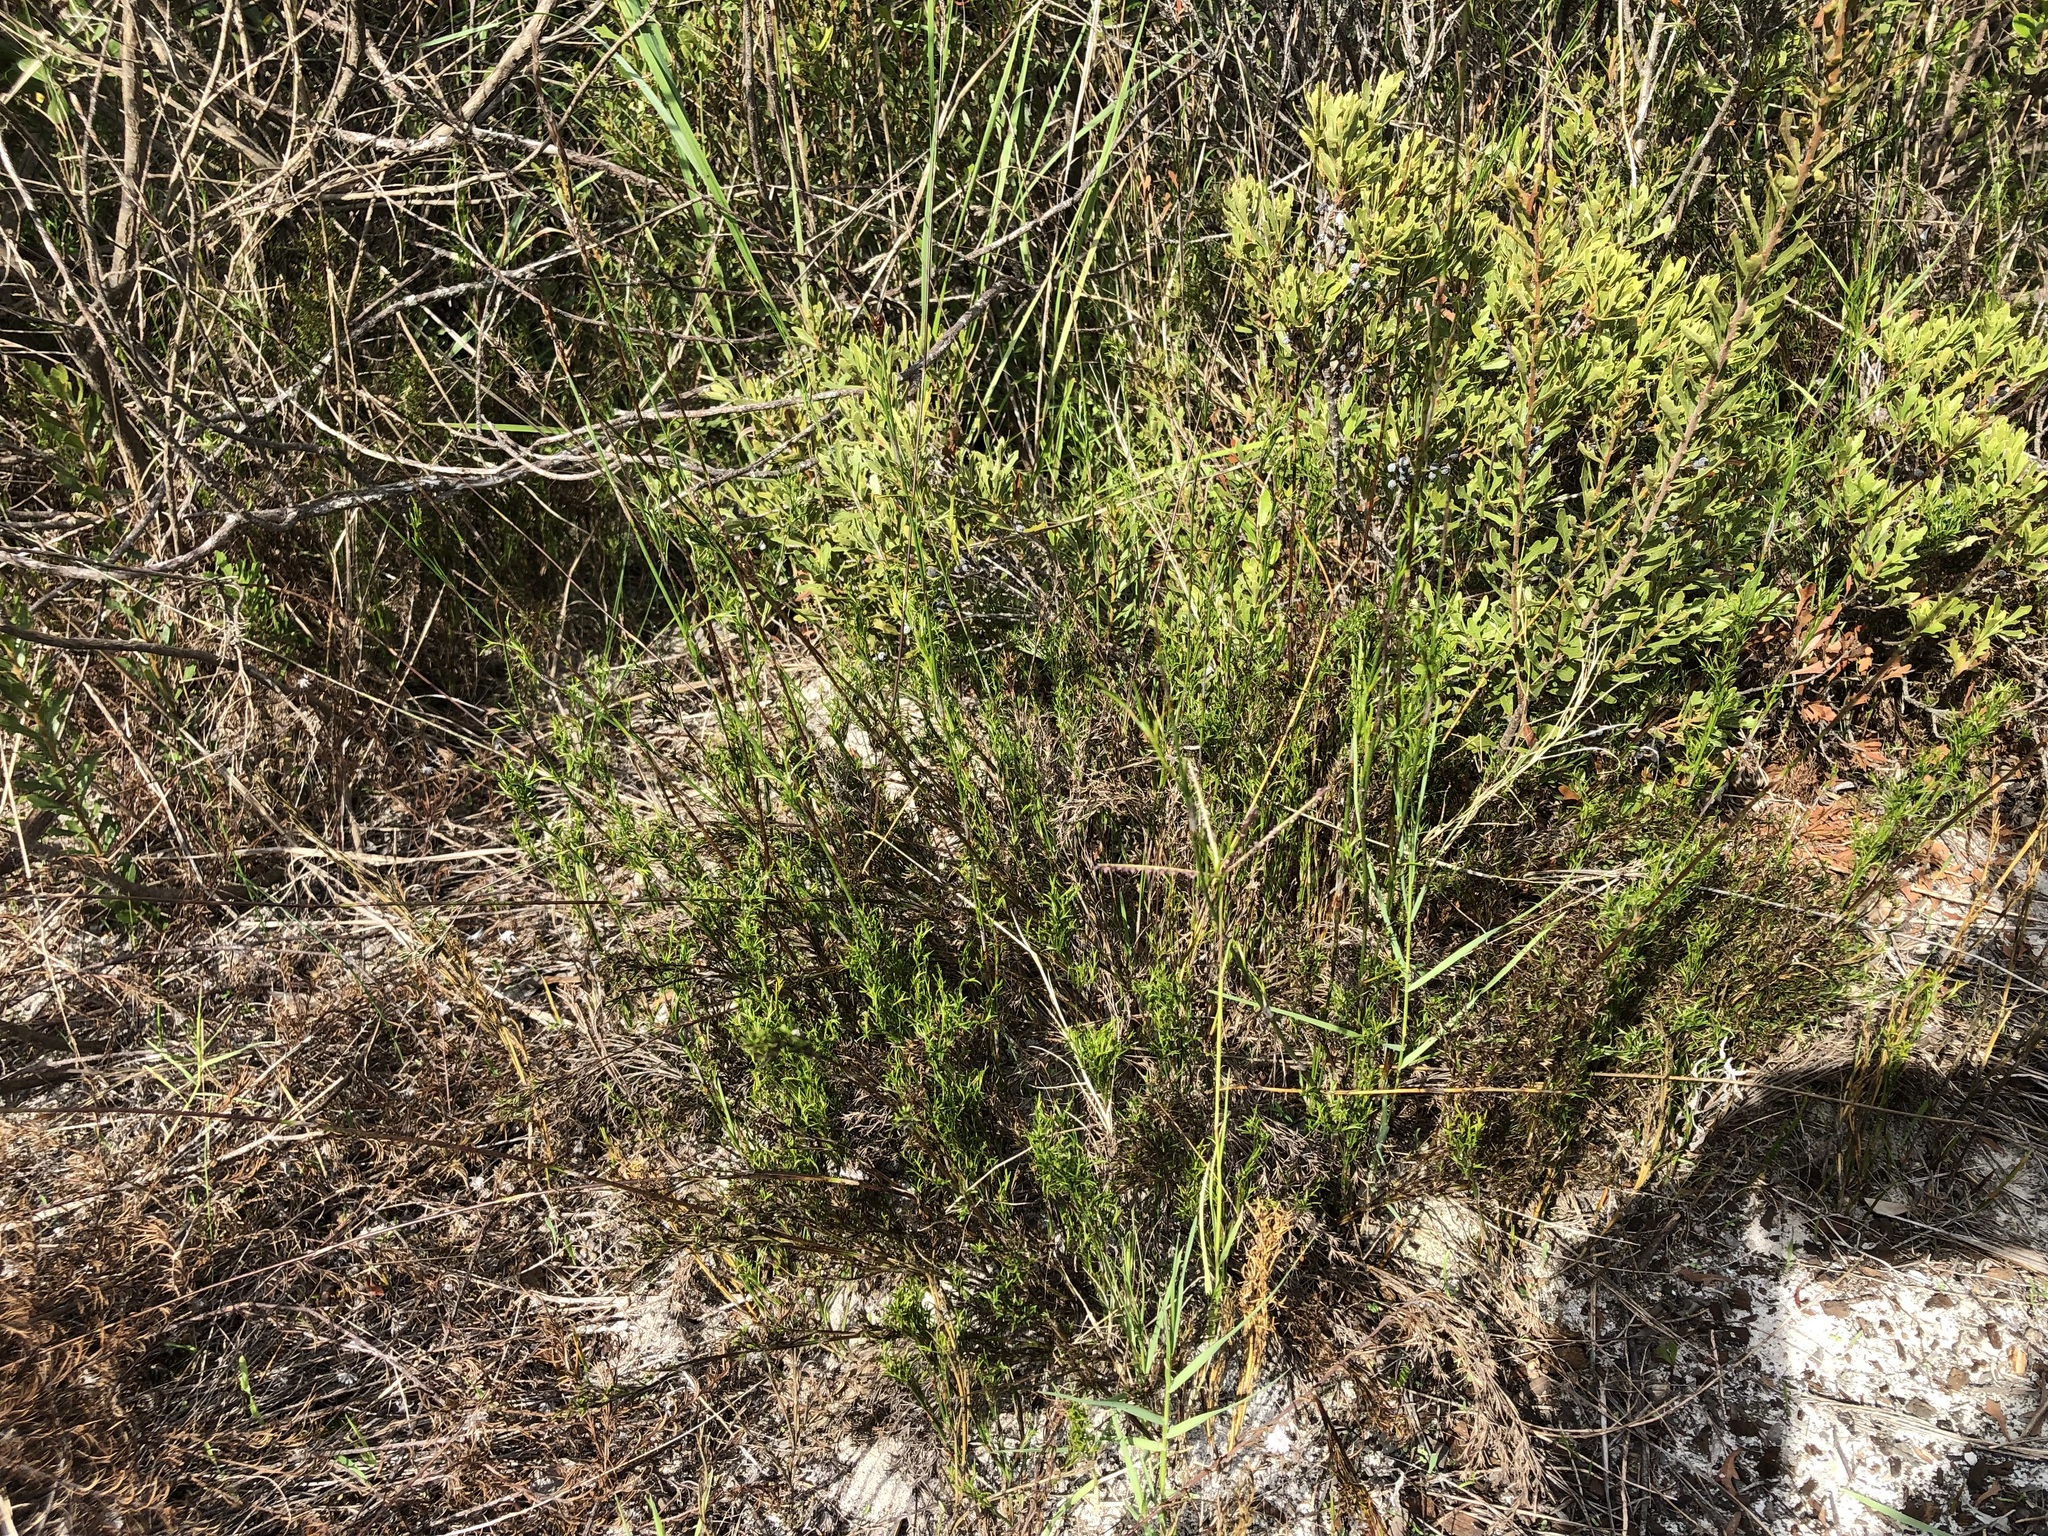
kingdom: Plantae
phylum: Tracheophyta
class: Liliopsida
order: Poales
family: Restionaceae
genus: Thamnochortus
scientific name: Thamnochortus obtusus
